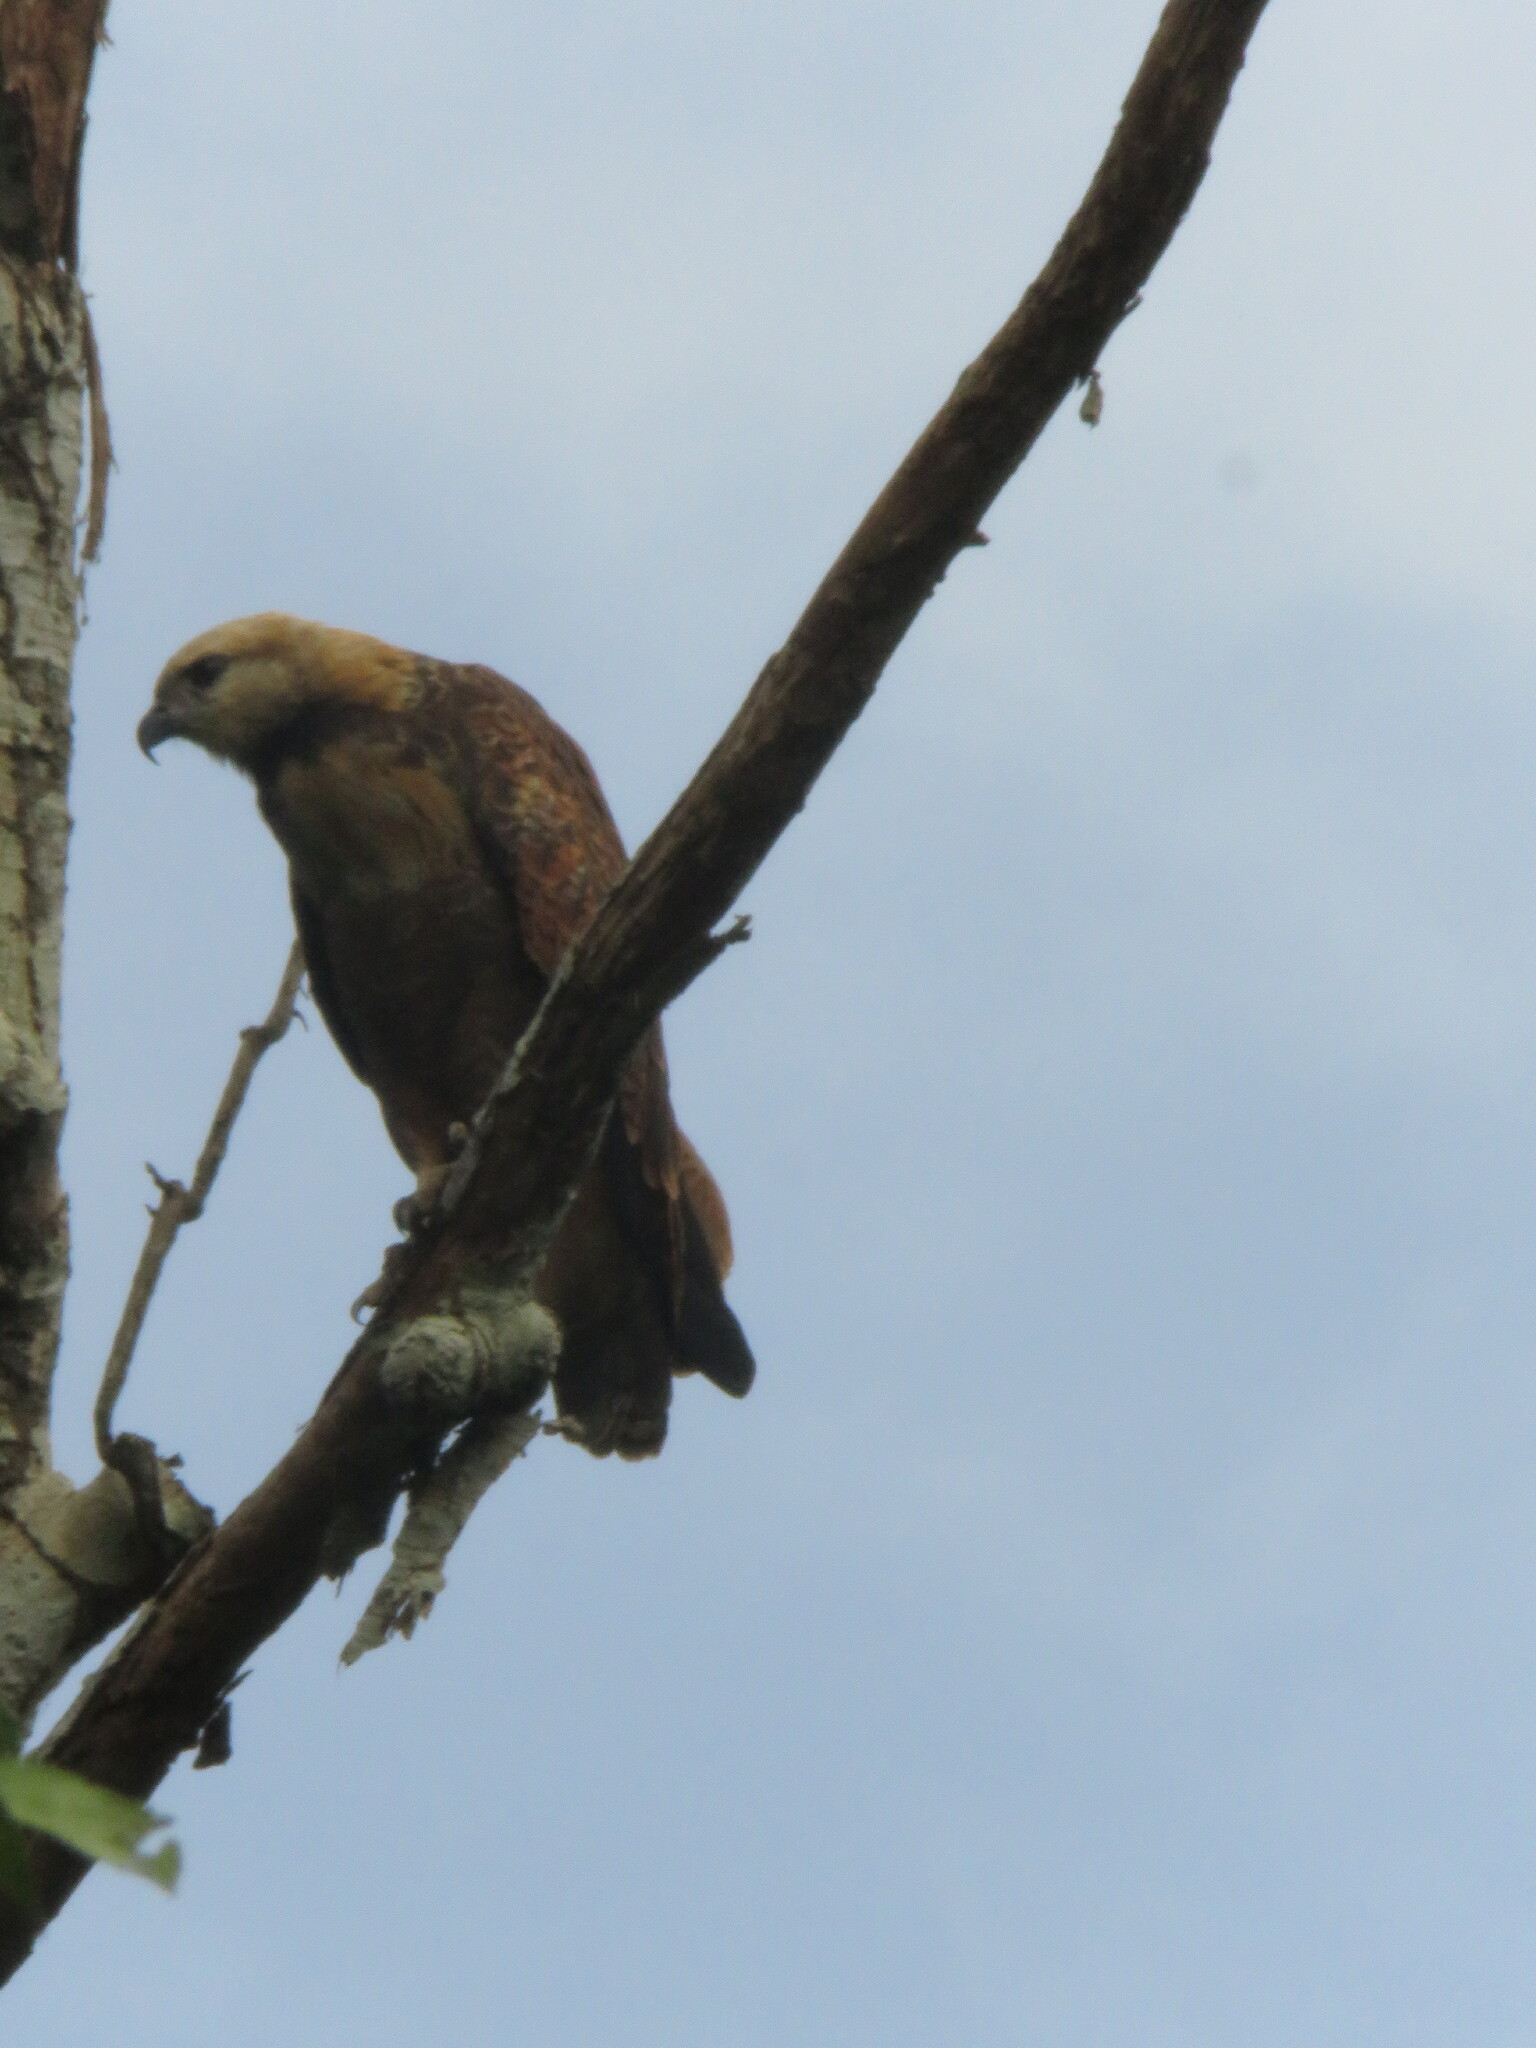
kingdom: Animalia
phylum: Chordata
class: Aves
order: Accipitriformes
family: Accipitridae
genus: Busarellus
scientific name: Busarellus nigricollis
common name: Black-collared hawk
